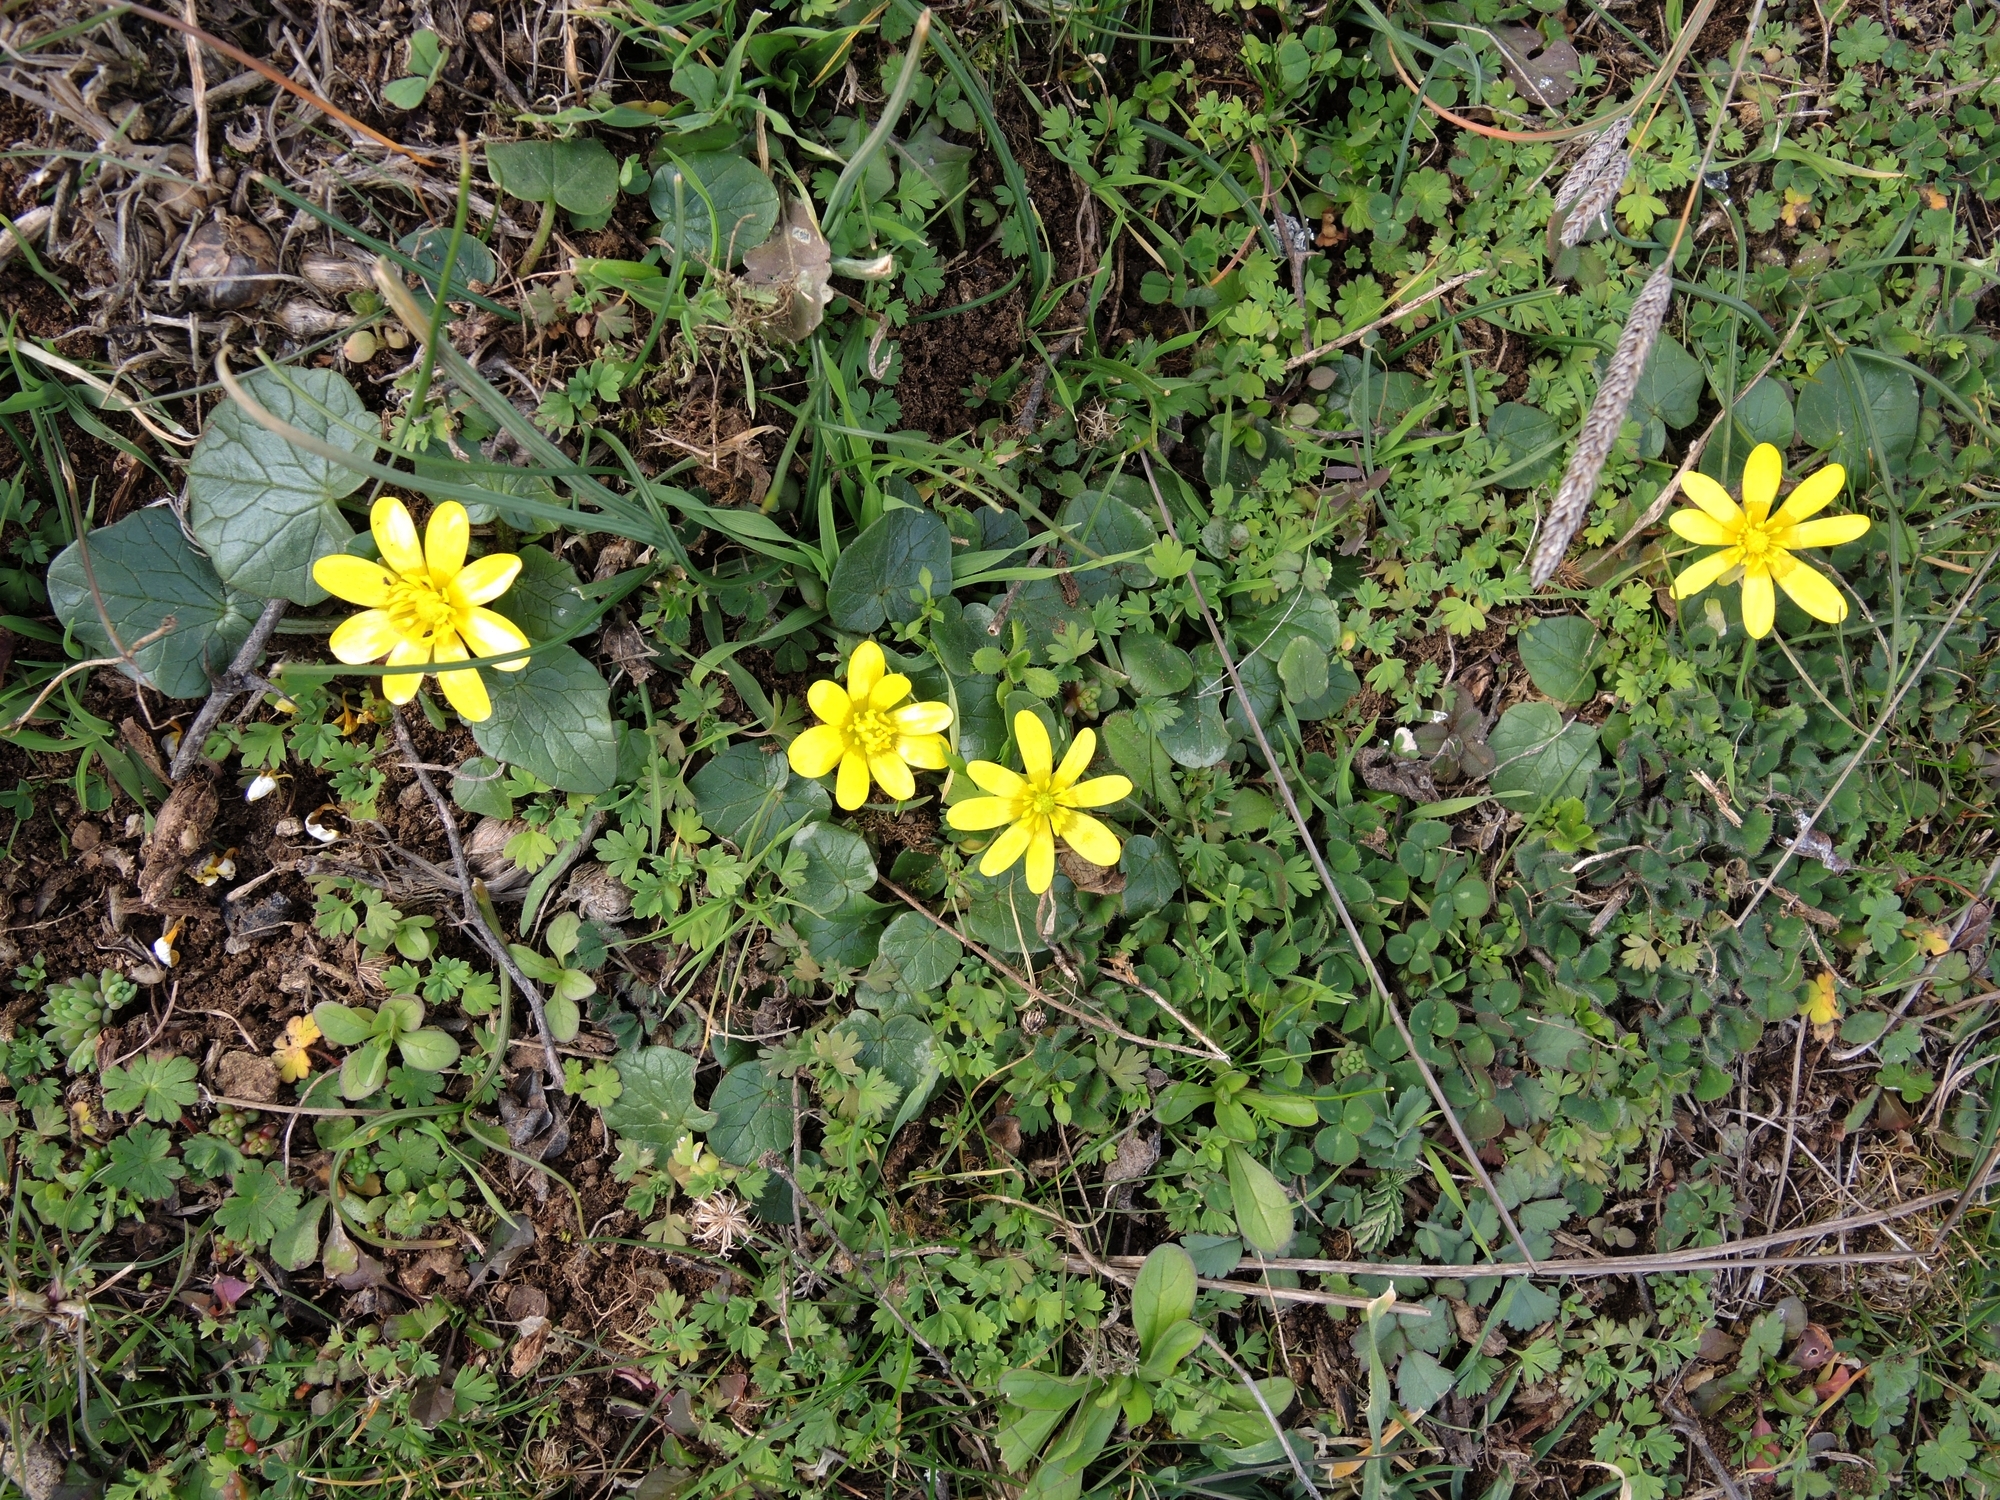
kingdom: Plantae
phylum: Tracheophyta
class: Magnoliopsida
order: Ranunculales
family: Ranunculaceae
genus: Ficaria
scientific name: Ficaria verna
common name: Lesser celandine
